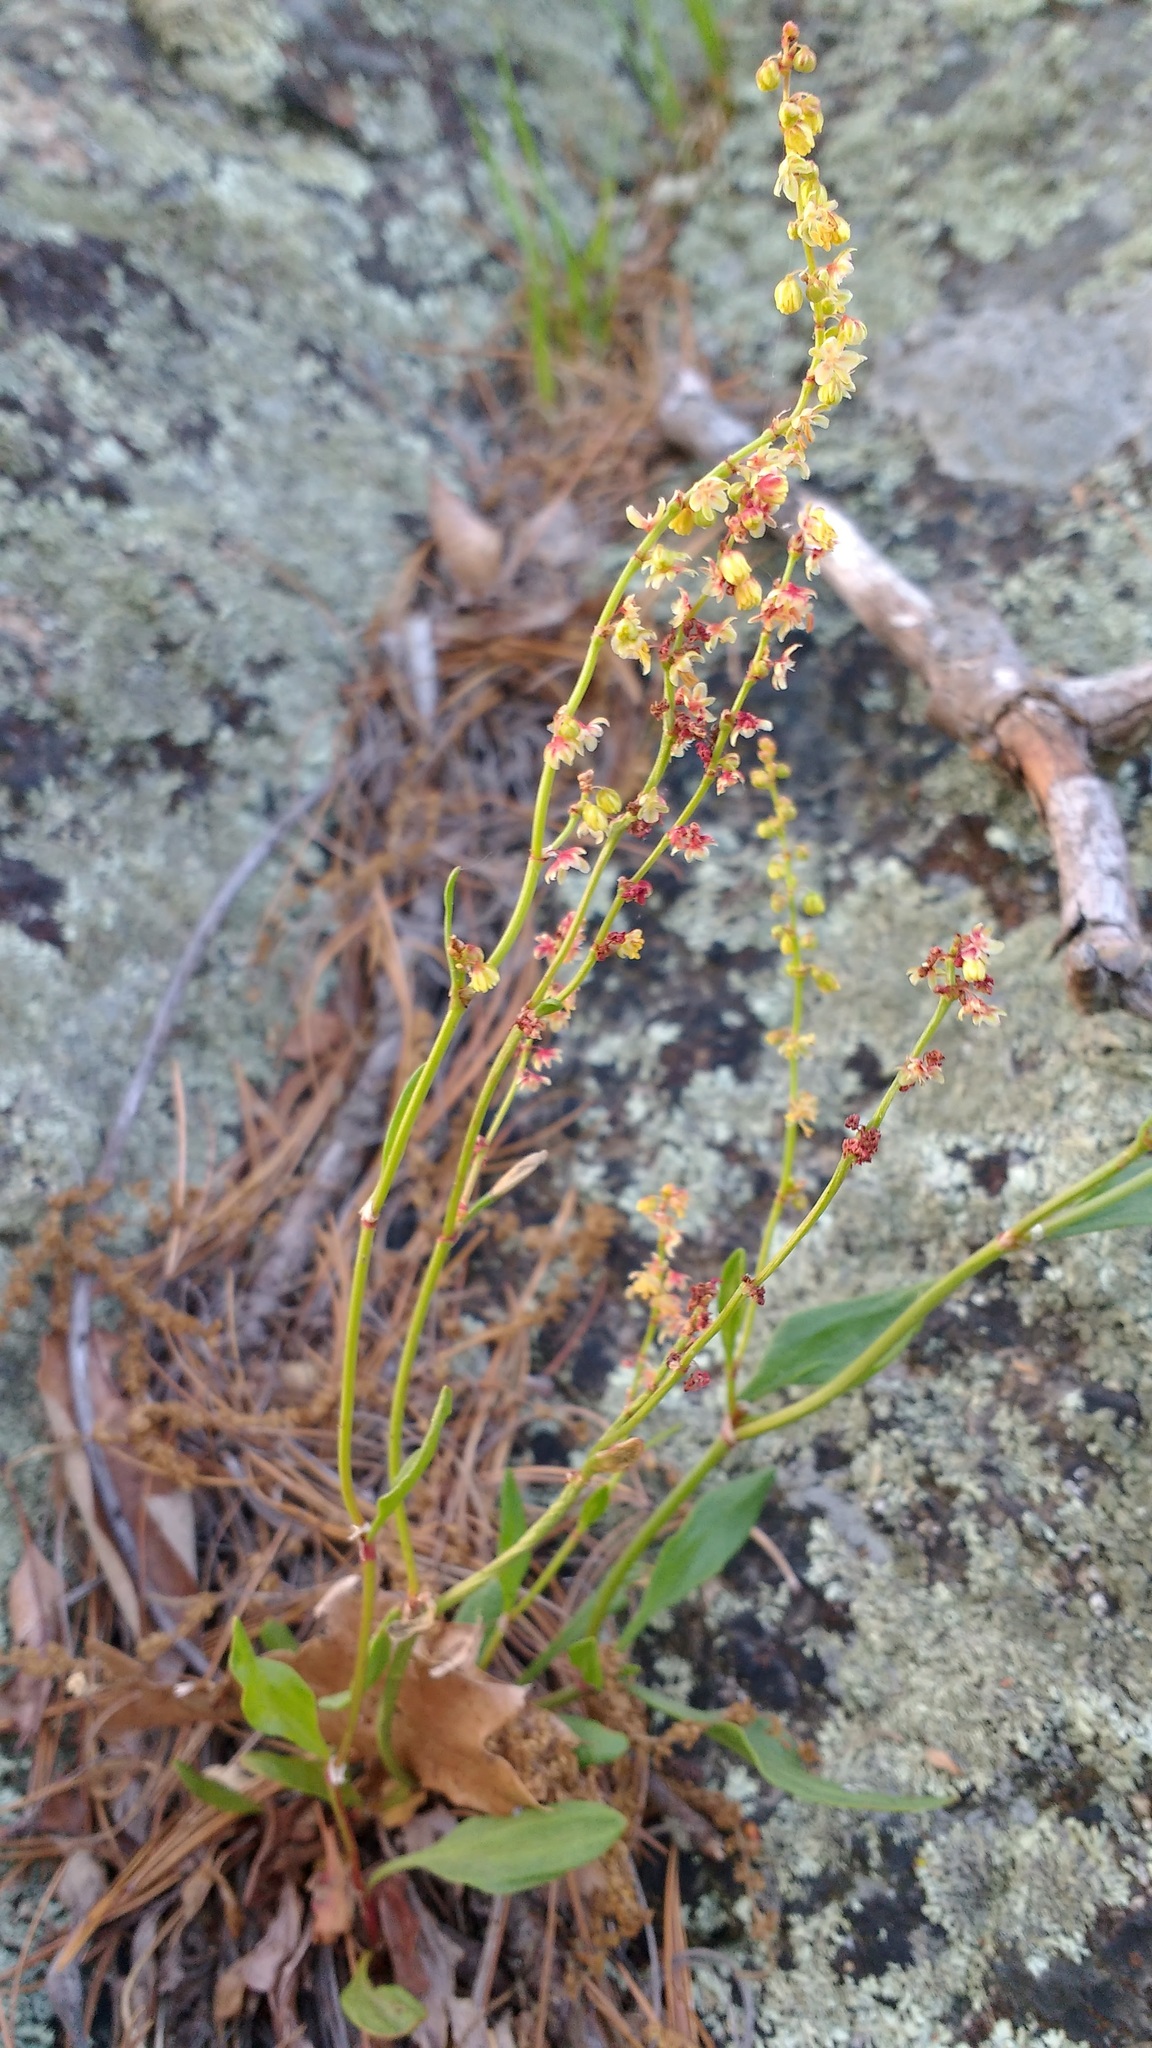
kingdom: Plantae
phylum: Tracheophyta
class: Magnoliopsida
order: Caryophyllales
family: Polygonaceae
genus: Rumex
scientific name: Rumex acetosella
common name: Common sheep sorrel
